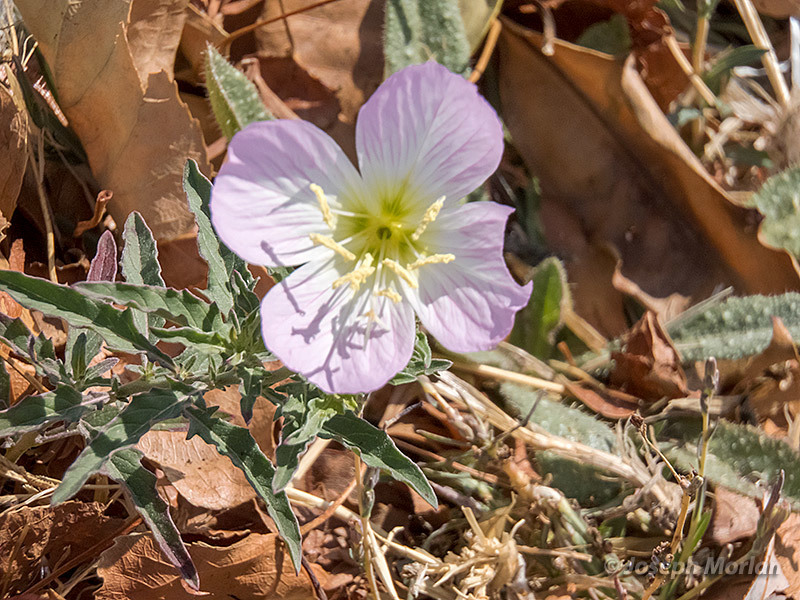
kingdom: Plantae
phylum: Tracheophyta
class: Magnoliopsida
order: Myrtales
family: Onagraceae
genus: Oenothera
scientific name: Oenothera speciosa
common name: White evening-primrose
